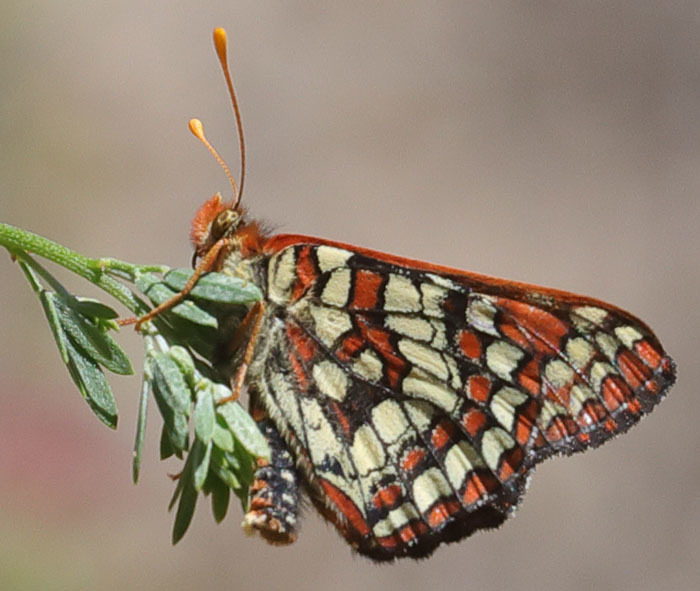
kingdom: Animalia
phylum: Arthropoda
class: Insecta
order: Lepidoptera
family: Nymphalidae
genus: Occidryas
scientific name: Occidryas chalcedona
